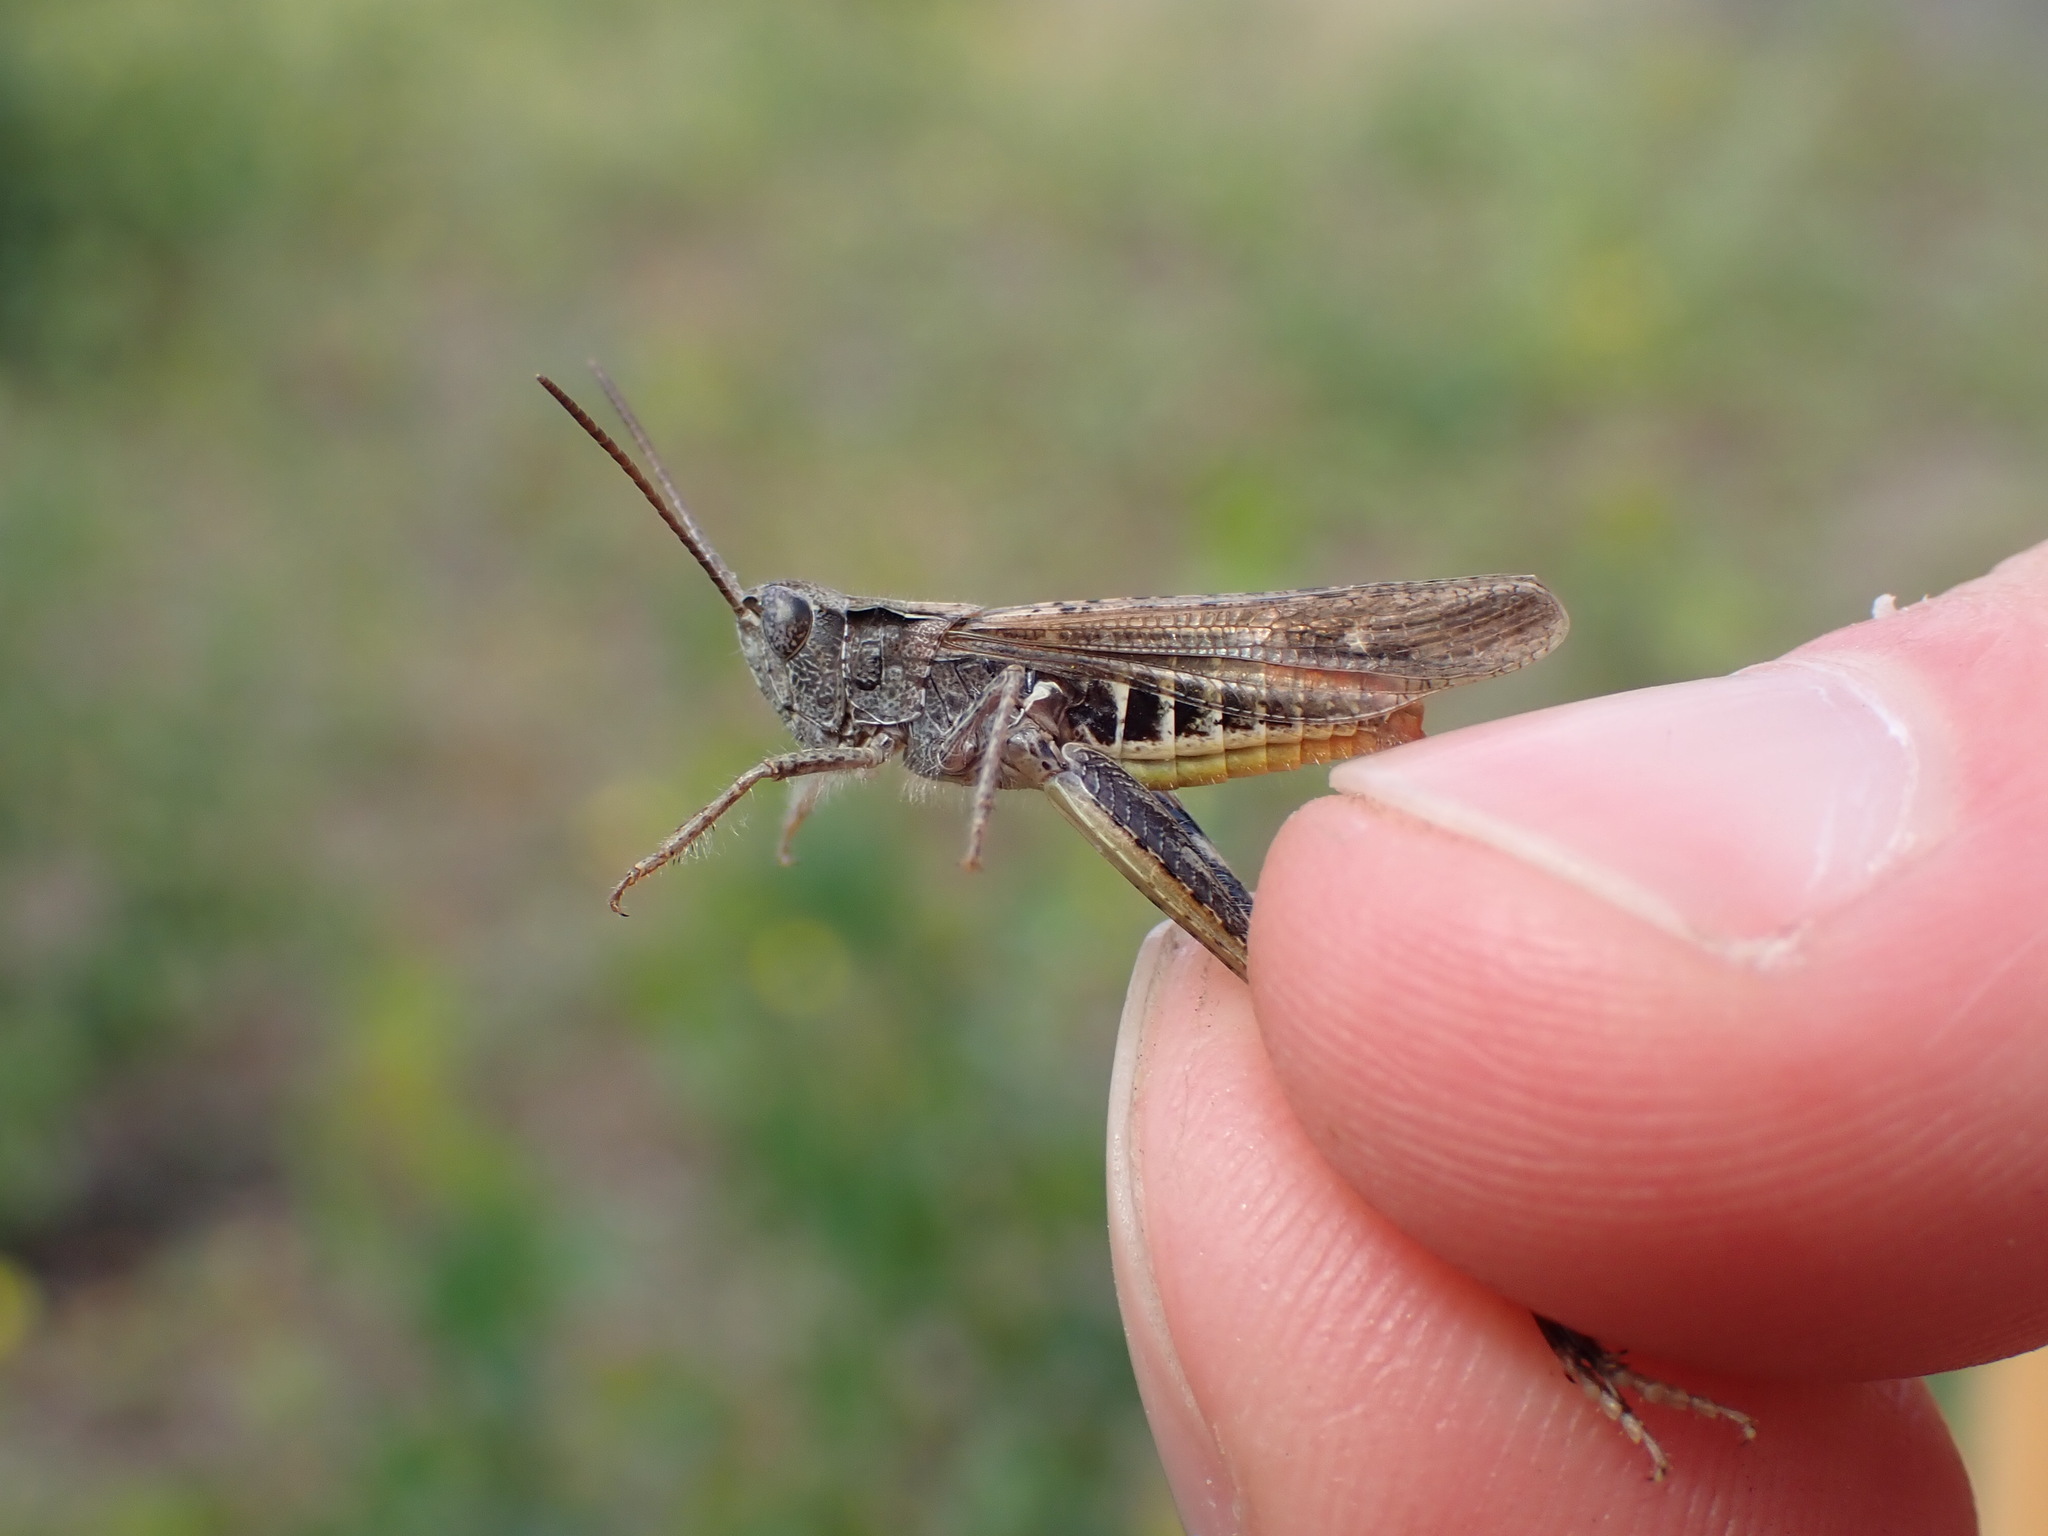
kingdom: Animalia
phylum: Arthropoda
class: Insecta
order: Orthoptera
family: Acrididae
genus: Chorthippus
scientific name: Chorthippus biguttulus
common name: Bow-winged grasshopper
